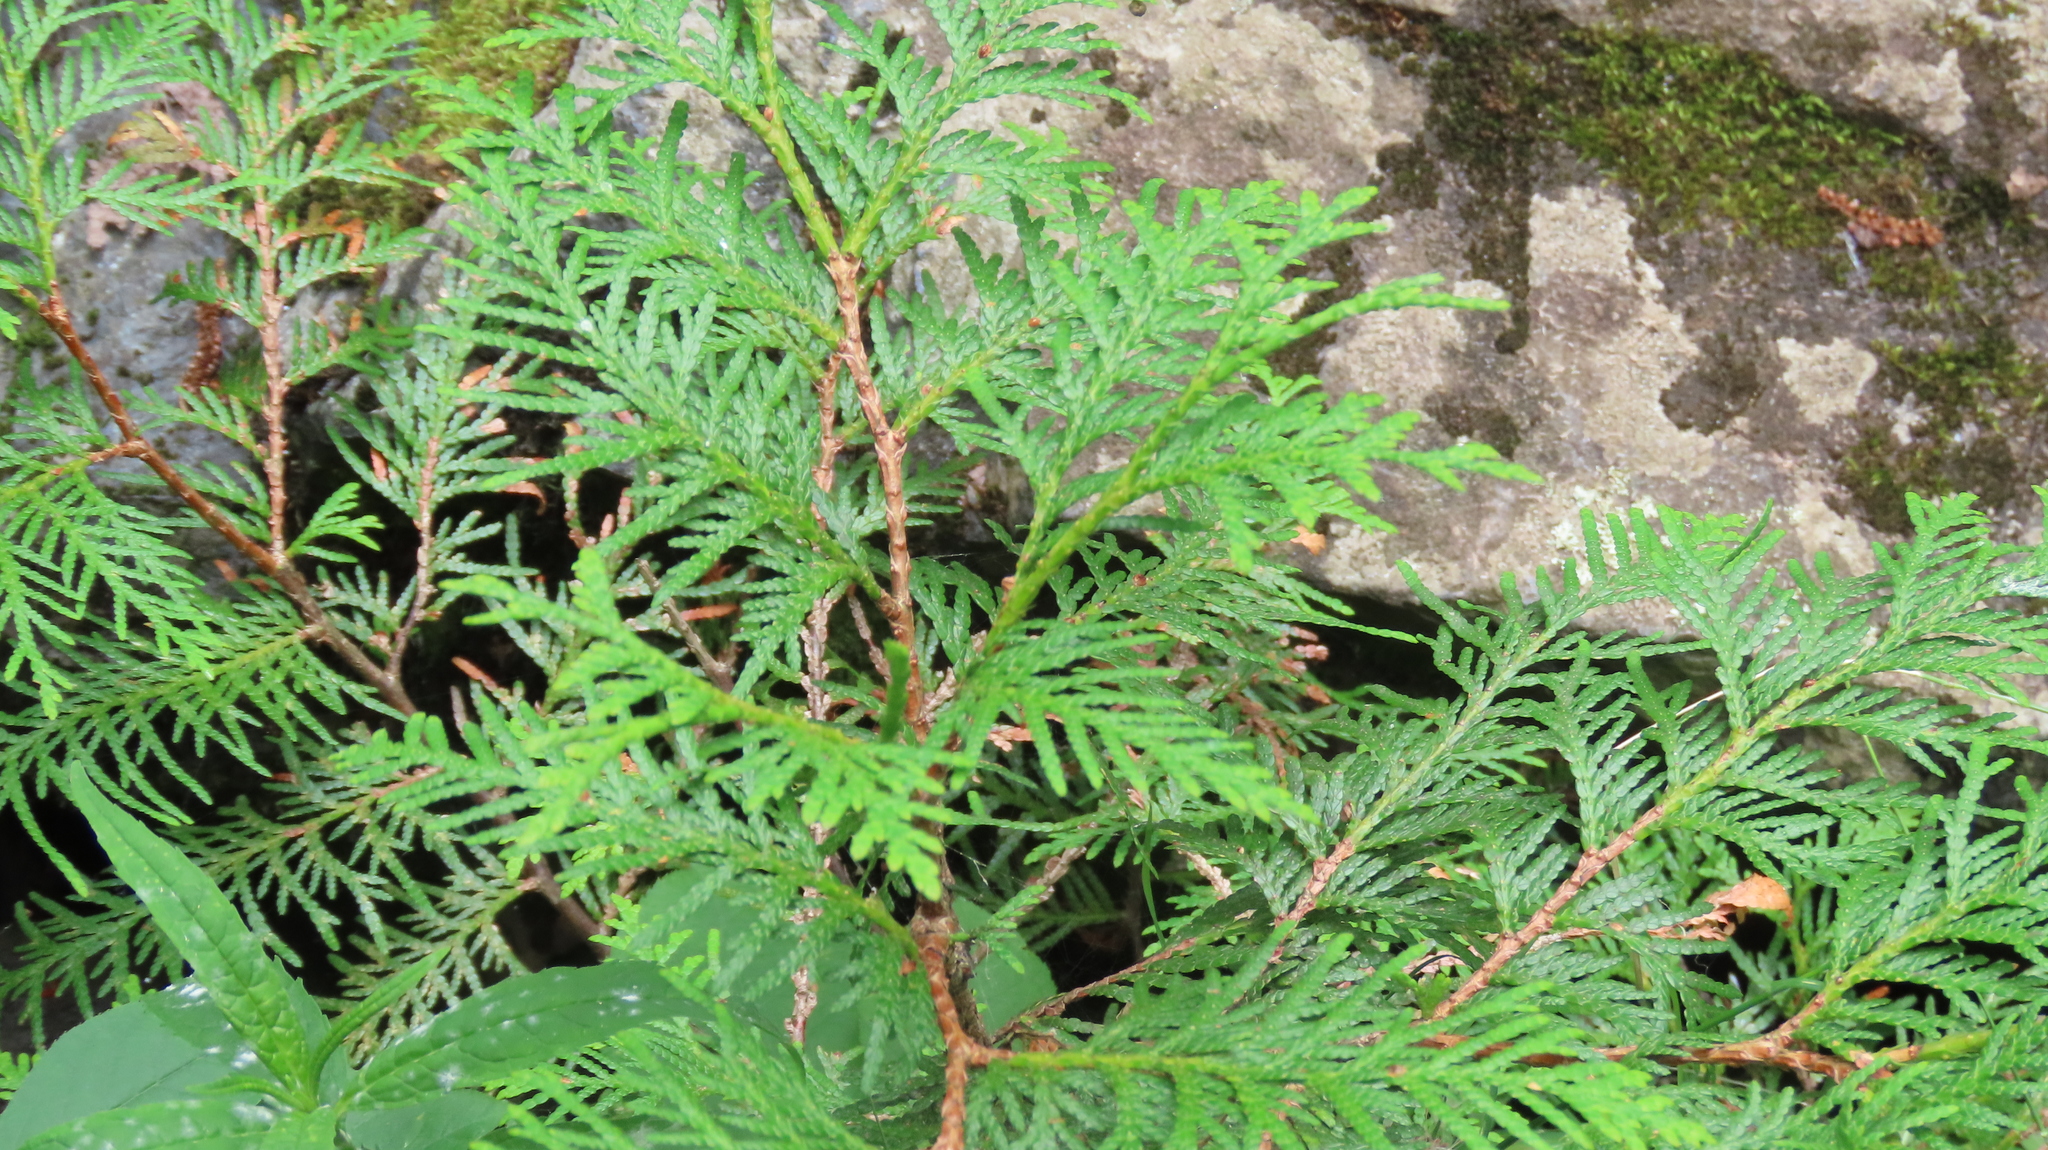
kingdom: Plantae
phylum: Tracheophyta
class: Pinopsida
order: Pinales
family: Cupressaceae
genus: Thuja
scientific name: Thuja occidentalis
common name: Northern white-cedar
